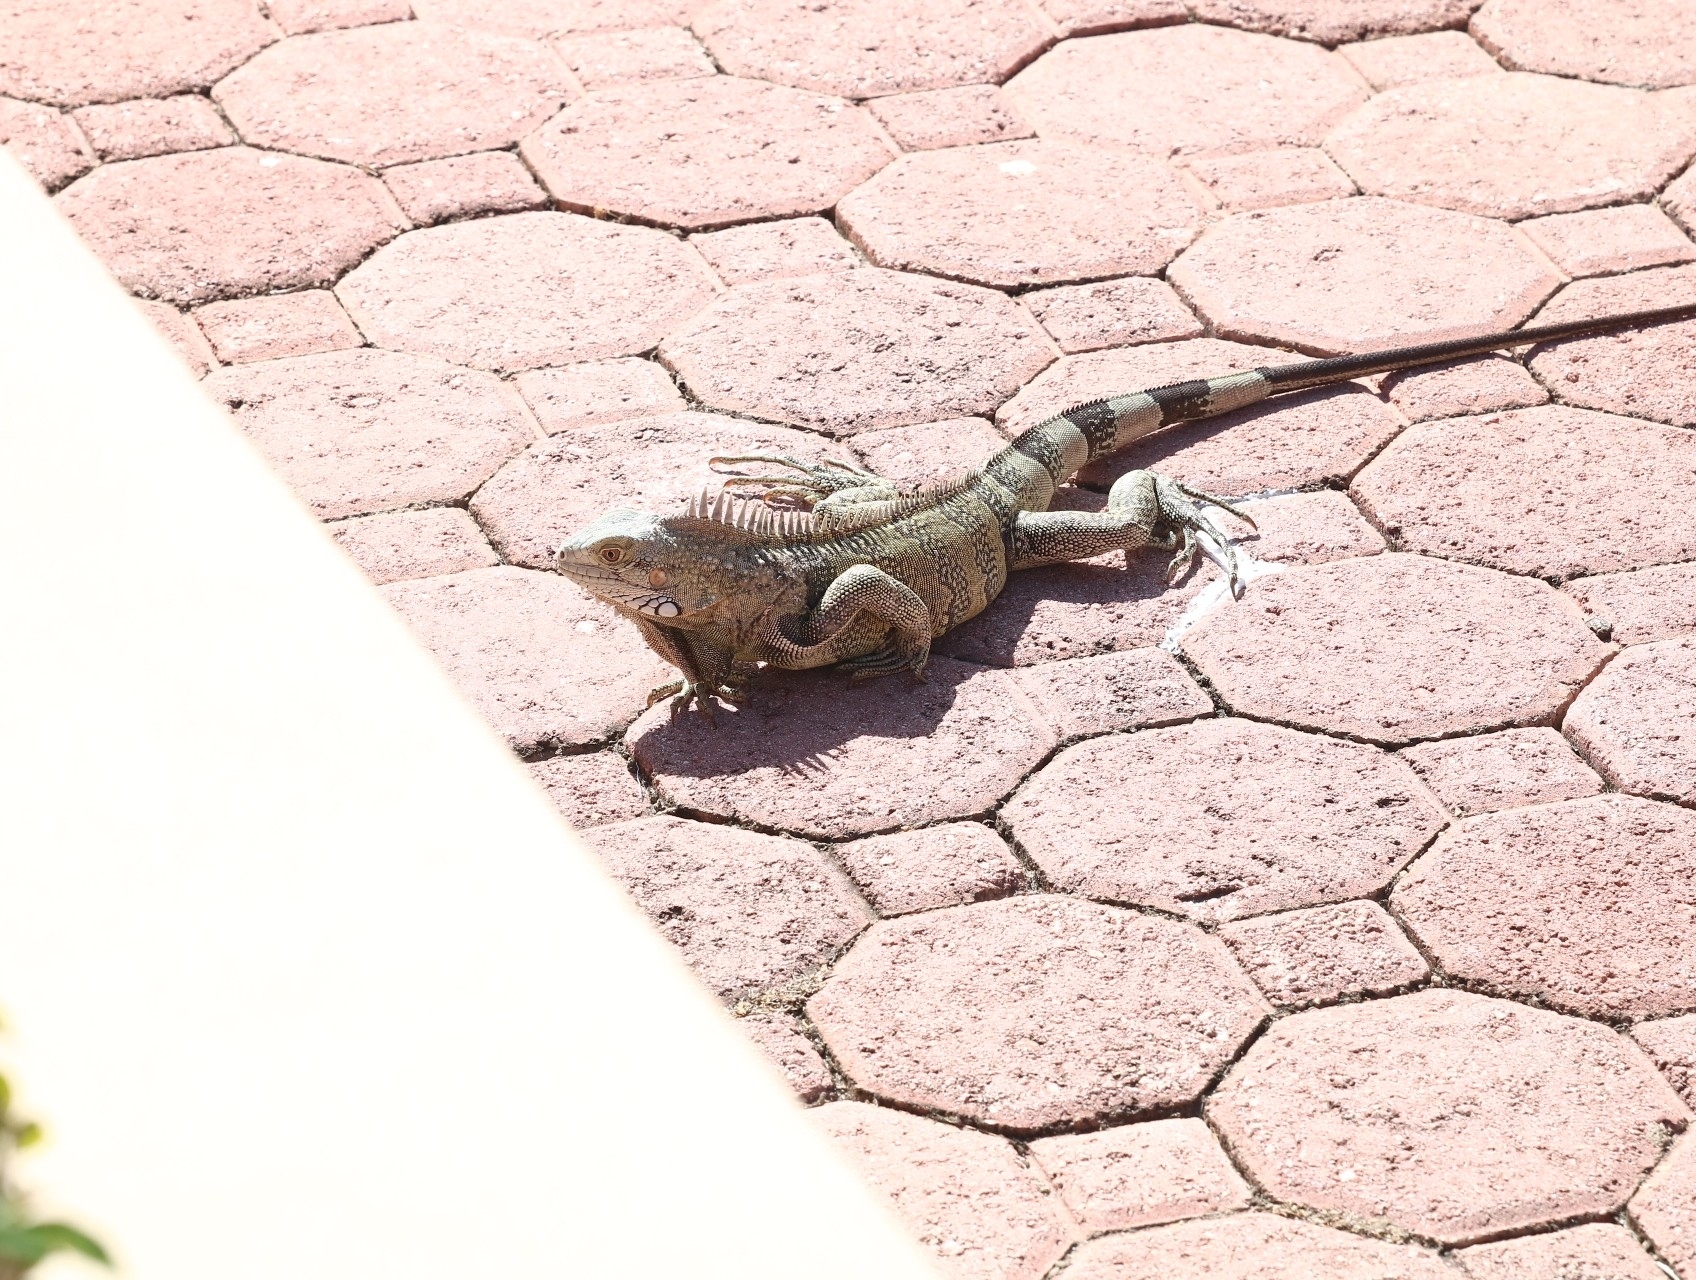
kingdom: Animalia
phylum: Chordata
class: Squamata
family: Iguanidae
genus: Iguana
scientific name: Iguana iguana
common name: Green iguana
